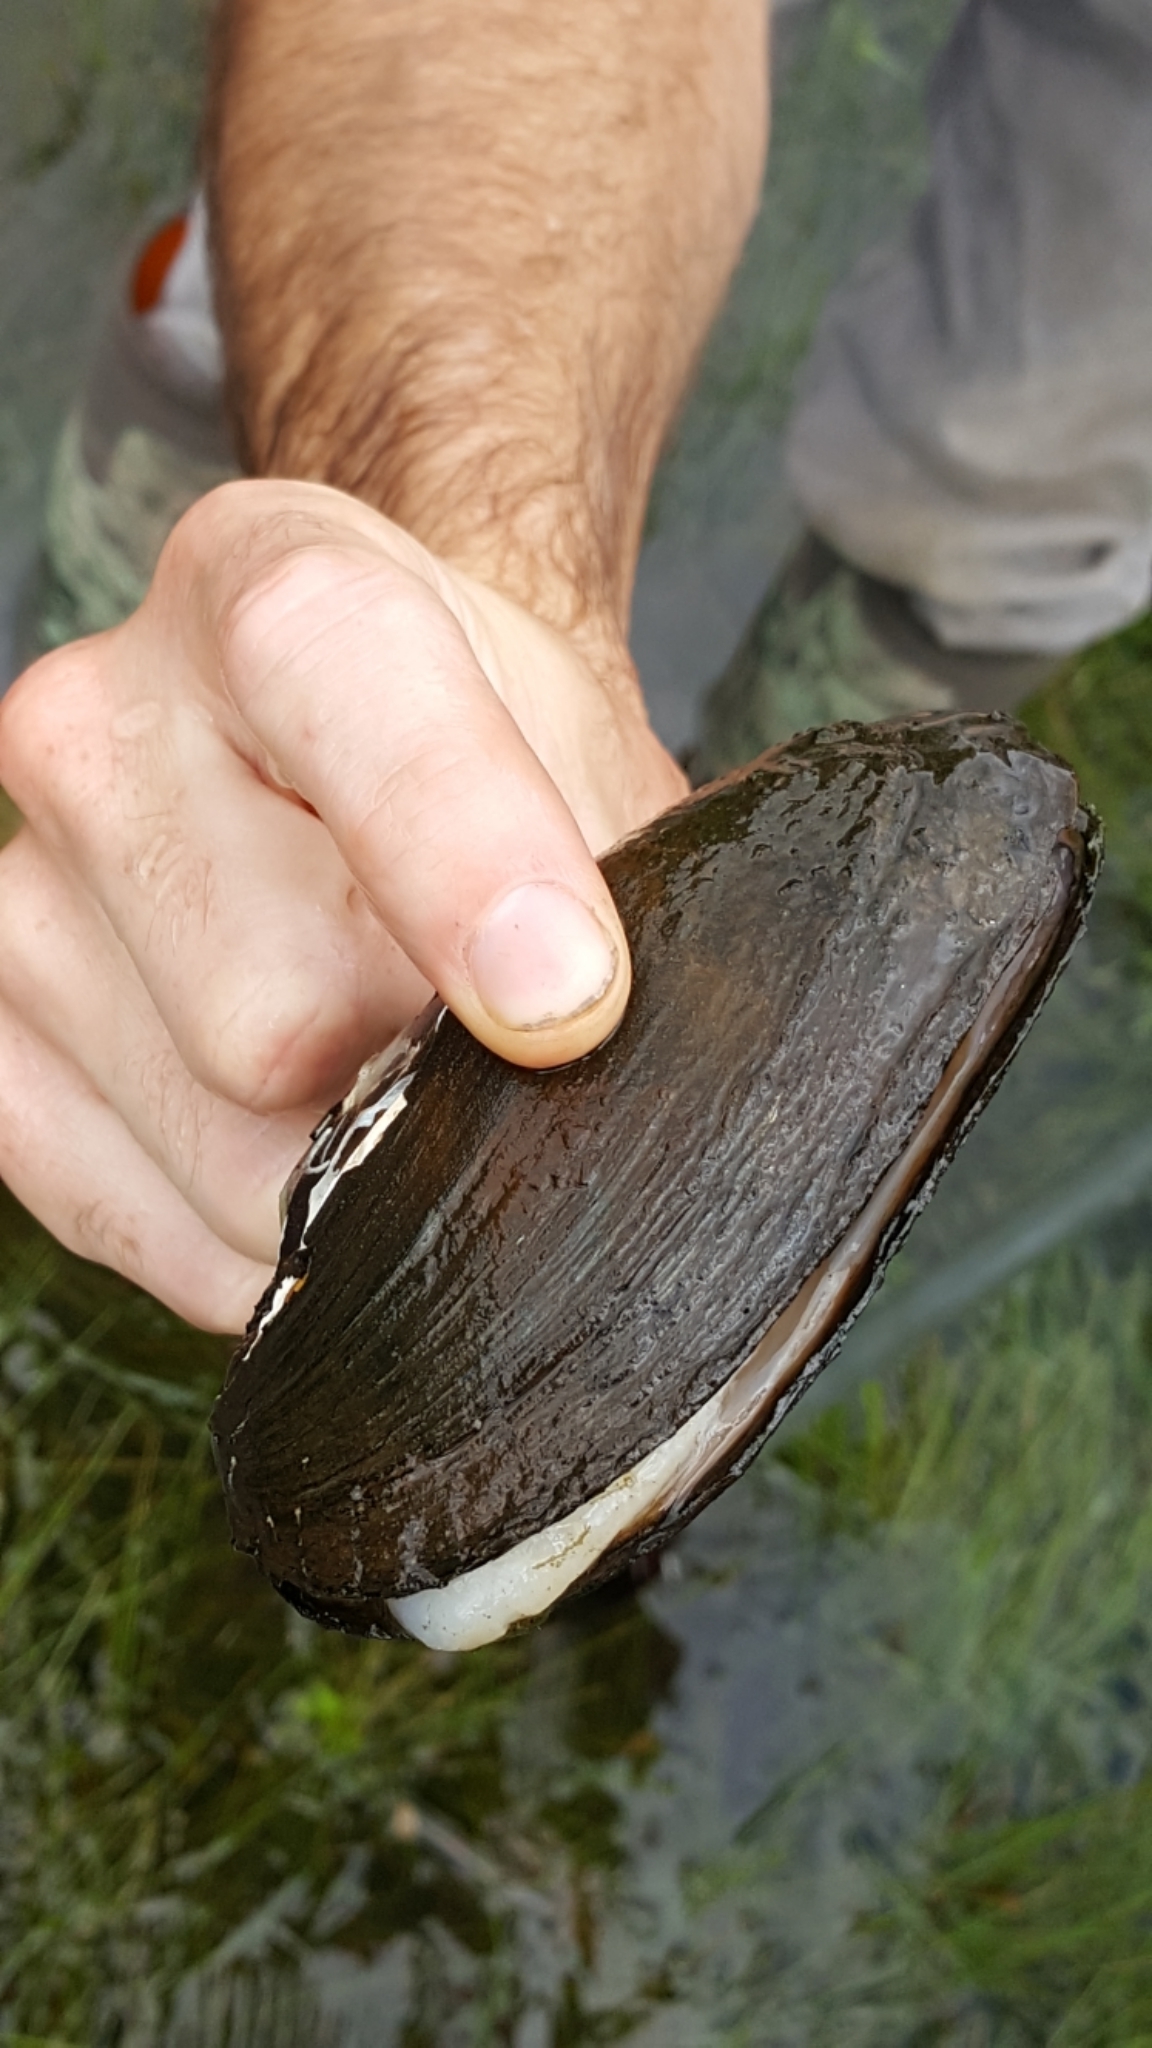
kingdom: Animalia
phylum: Mollusca
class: Bivalvia
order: Unionida
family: Unionidae
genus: Elliptio
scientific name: Elliptio complanata
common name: Eastern elliptio
